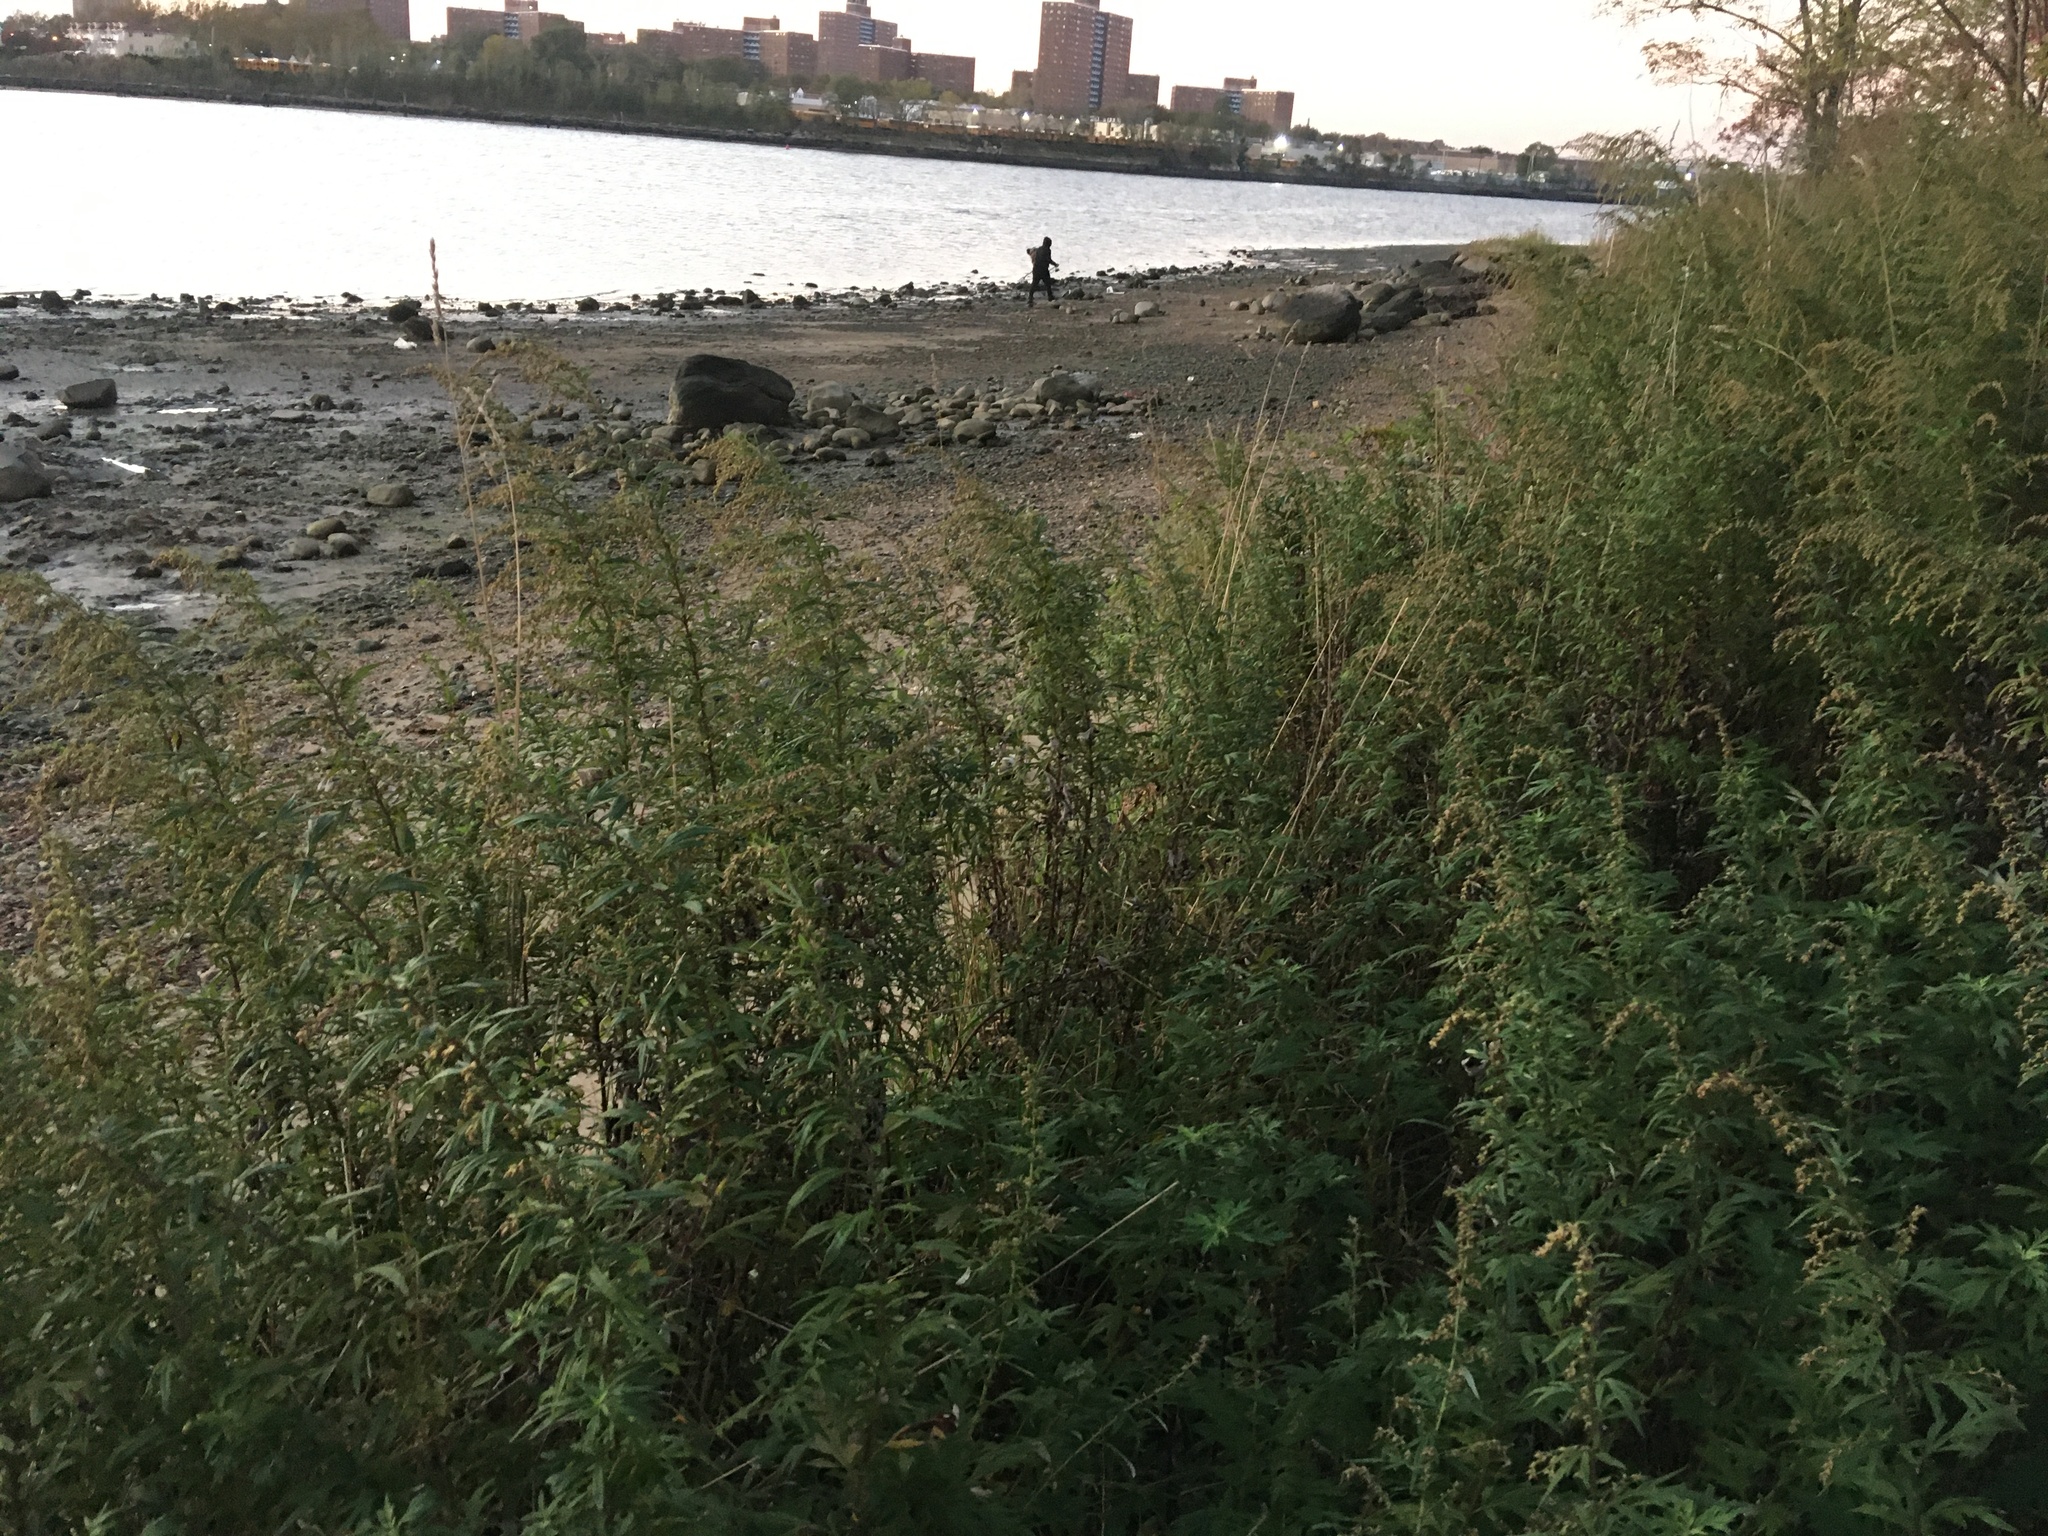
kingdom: Plantae
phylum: Tracheophyta
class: Magnoliopsida
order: Asterales
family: Asteraceae
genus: Artemisia
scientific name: Artemisia vulgaris
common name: Mugwort
